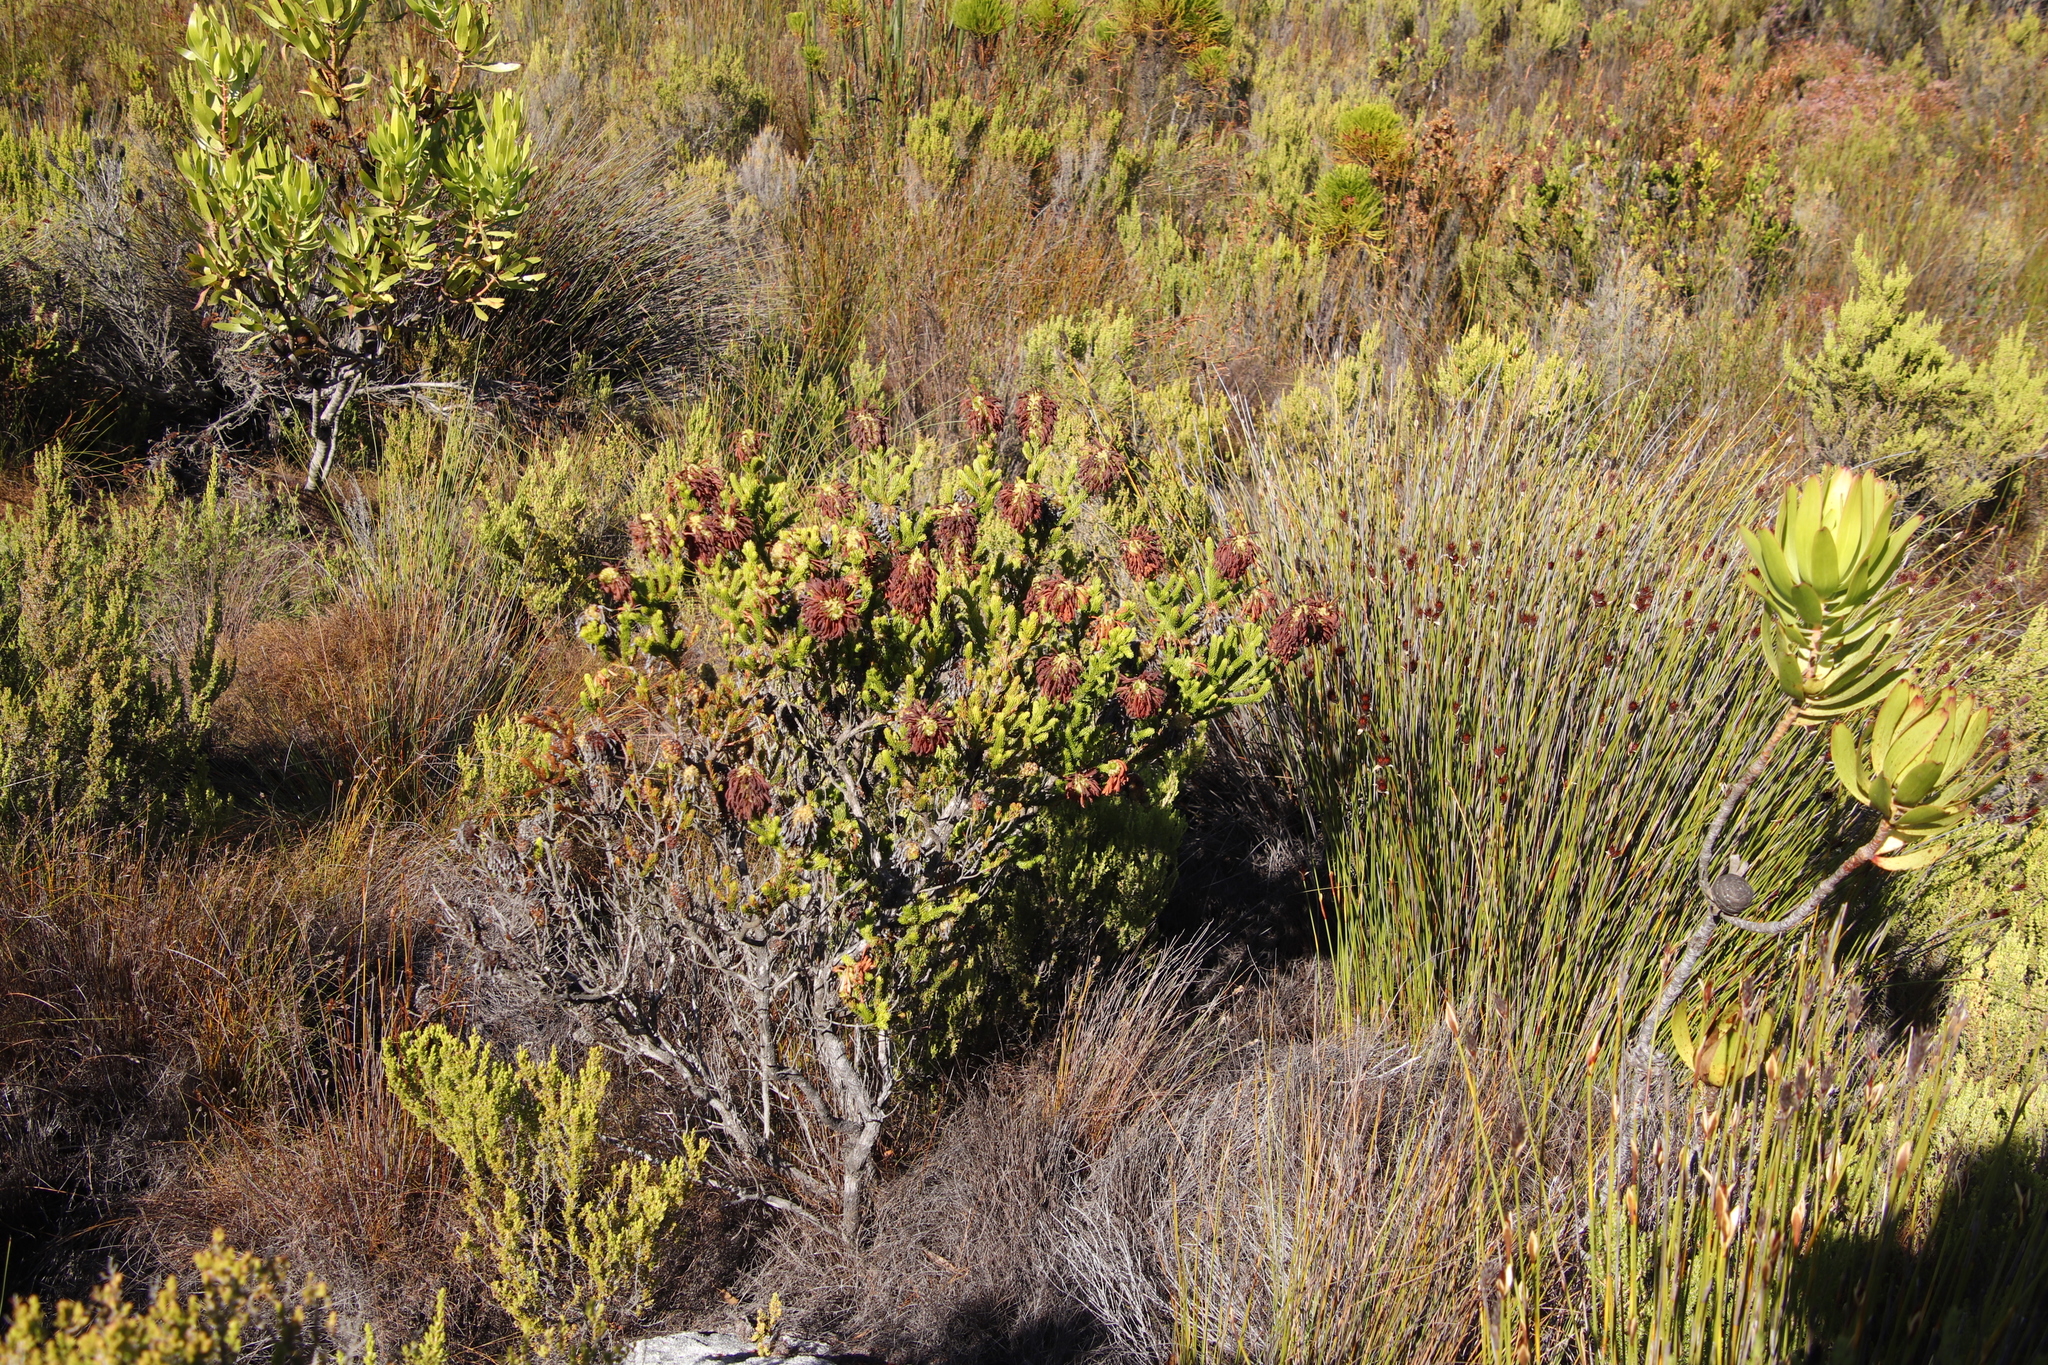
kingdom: Plantae
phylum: Tracheophyta
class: Magnoliopsida
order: Ericales
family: Ericaceae
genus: Erica
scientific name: Erica sessiliflora
